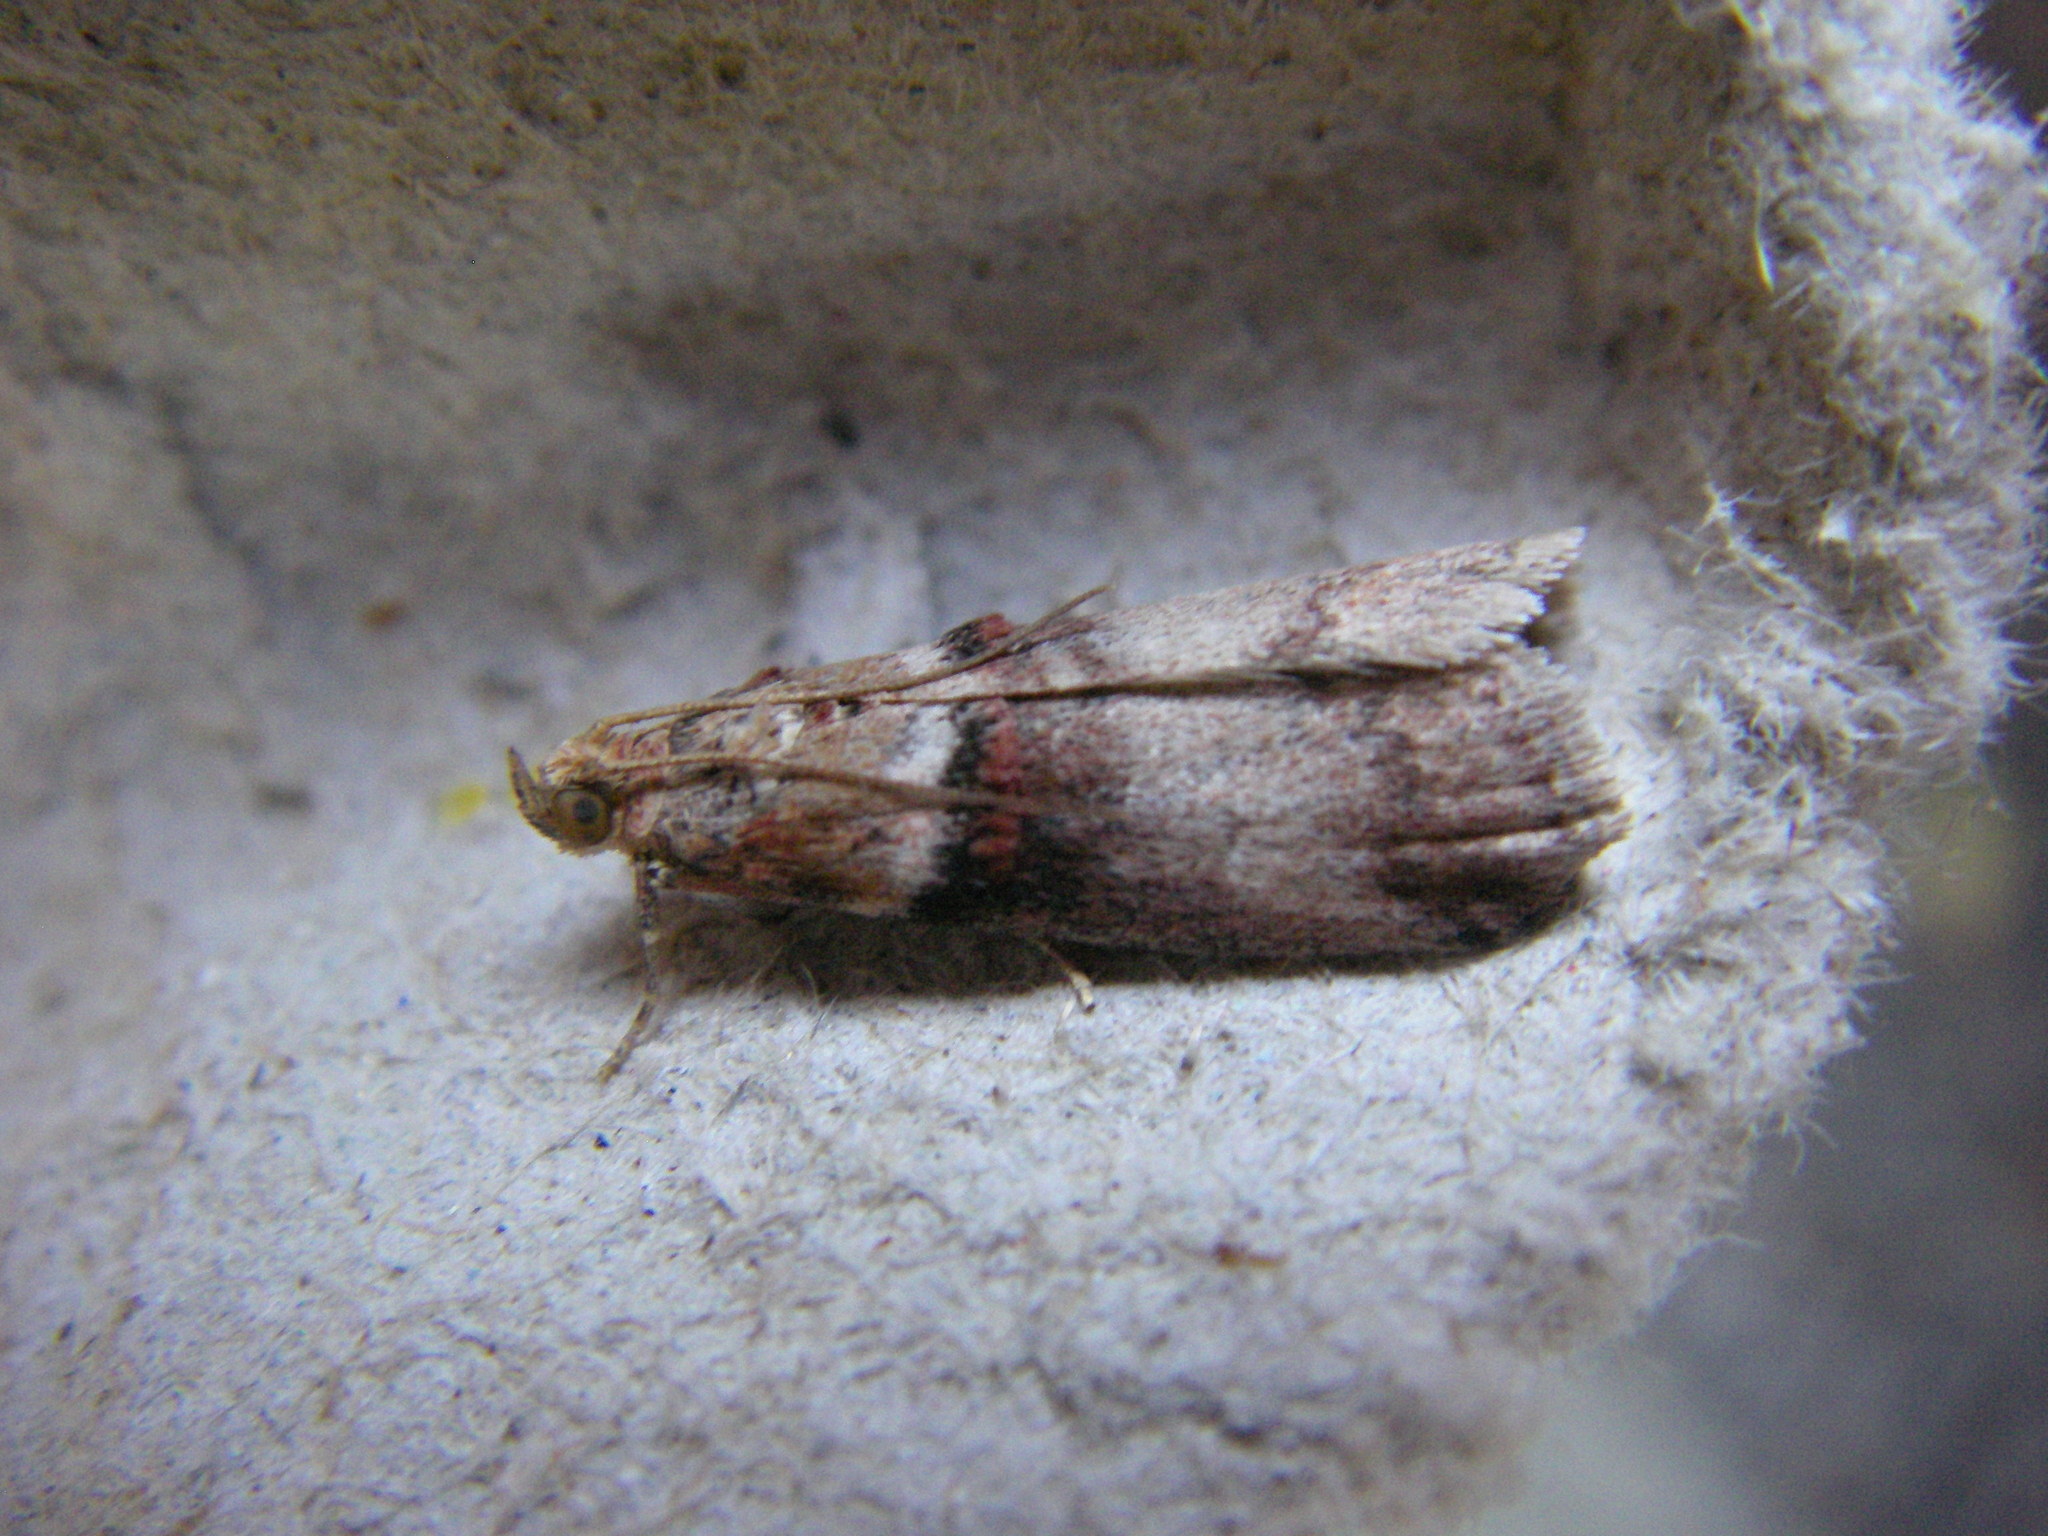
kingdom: Animalia
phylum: Arthropoda
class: Insecta
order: Lepidoptera
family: Pyralidae
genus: Acrobasis
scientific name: Acrobasis advenella
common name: Grey knot-horn
